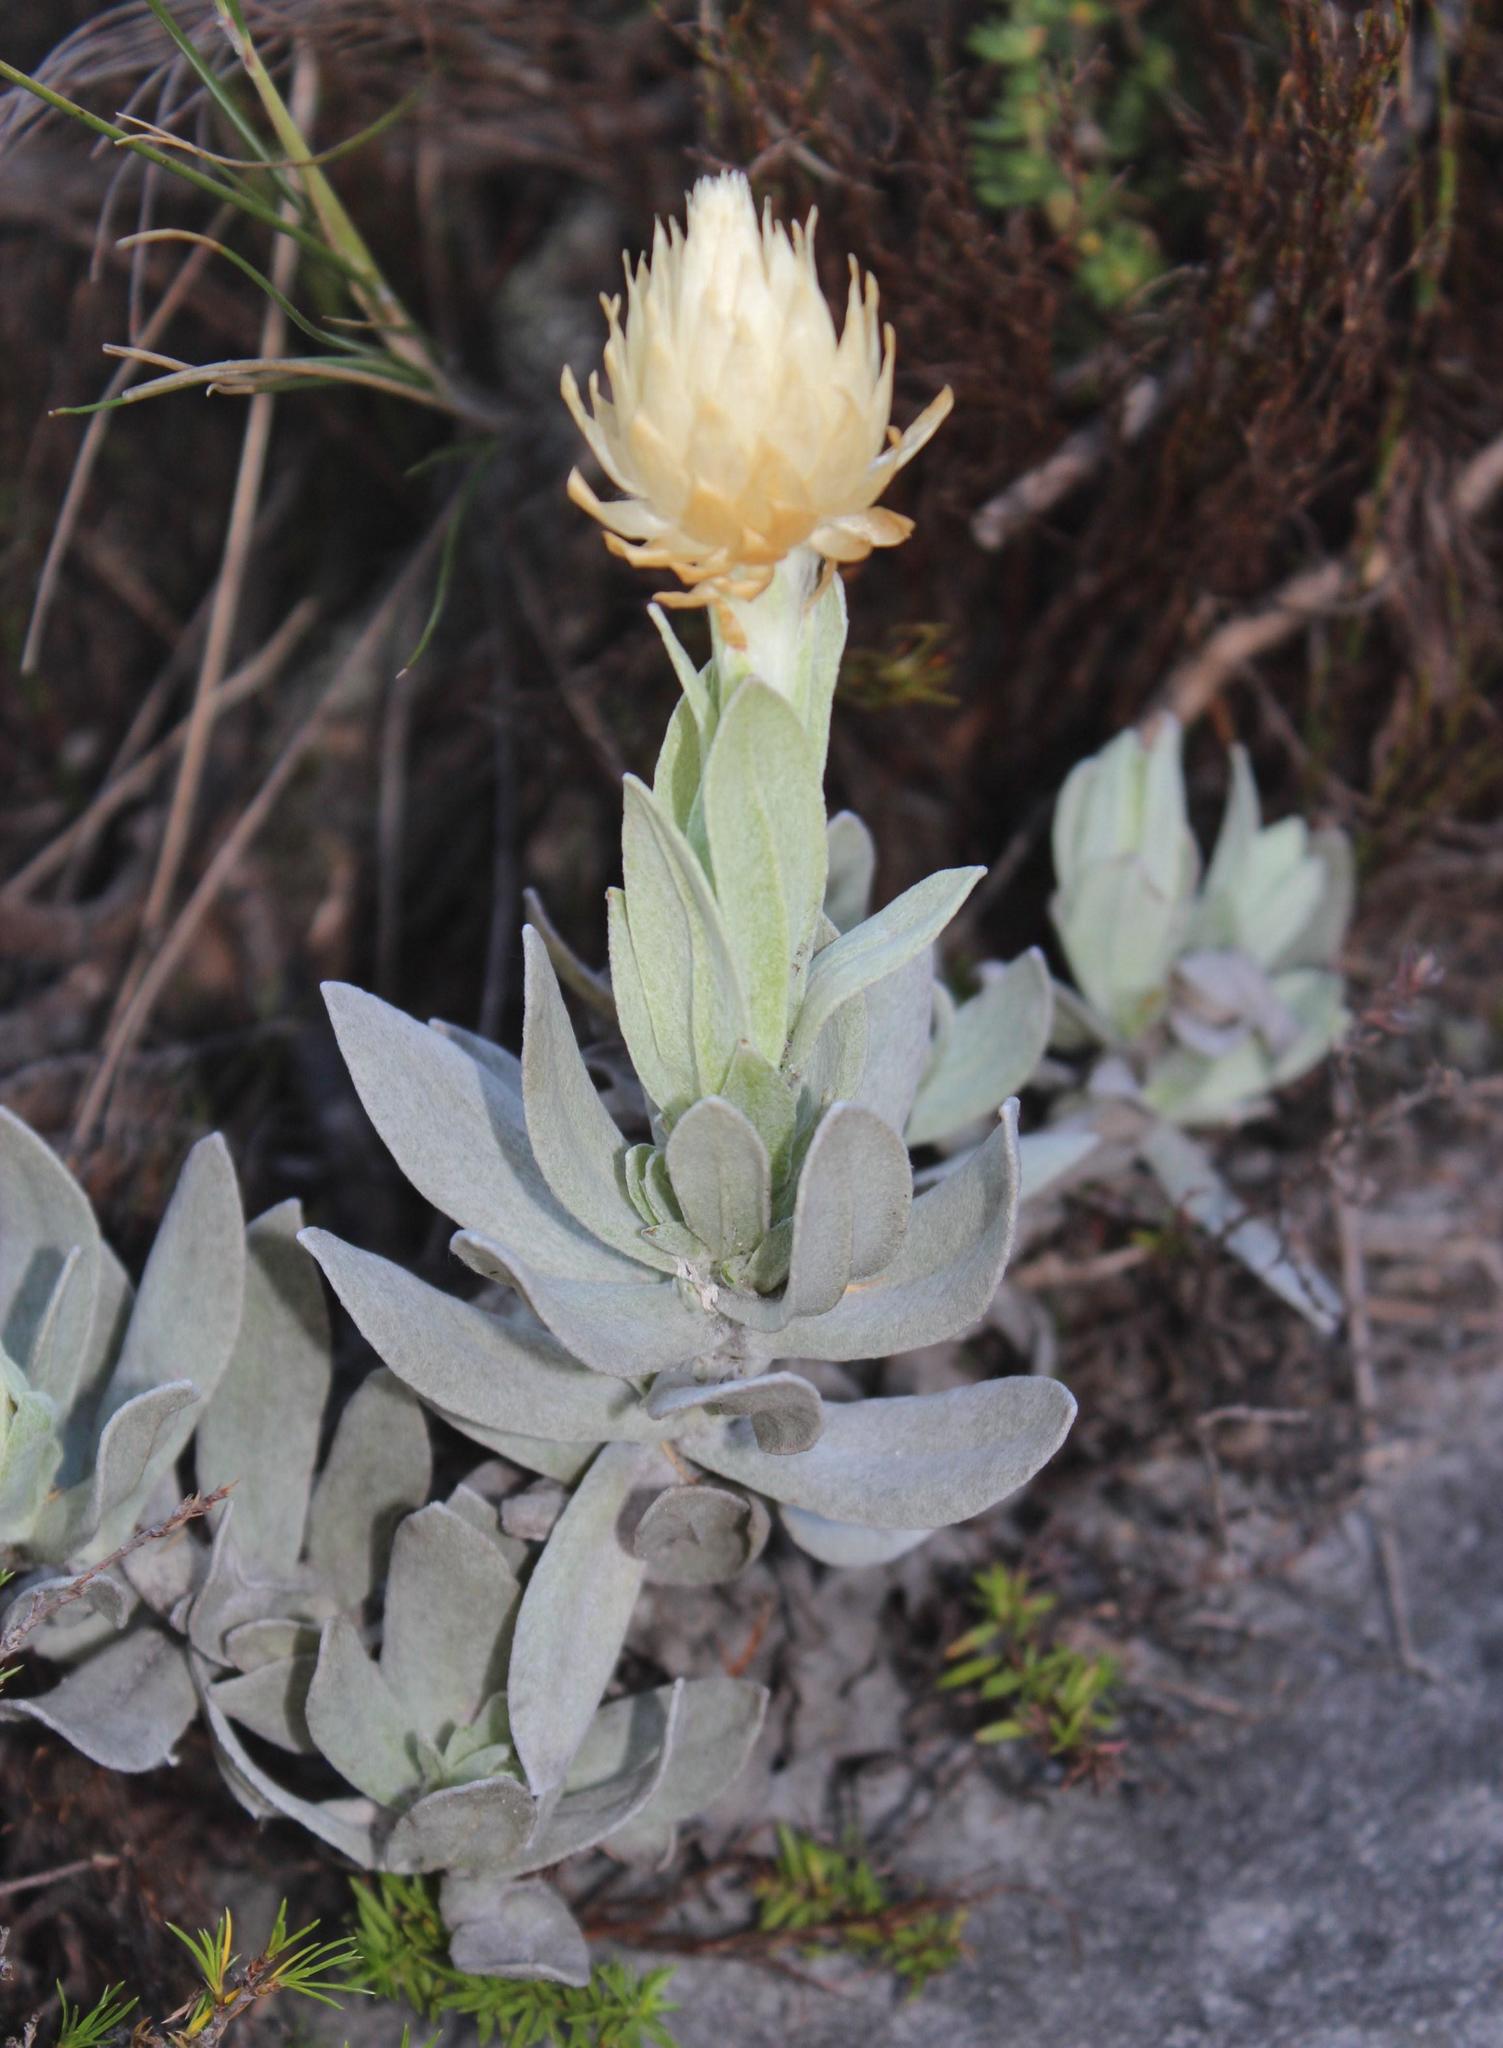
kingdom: Plantae
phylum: Tracheophyta
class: Magnoliopsida
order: Asterales
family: Asteraceae
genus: Syncarpha
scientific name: Syncarpha speciosissima
